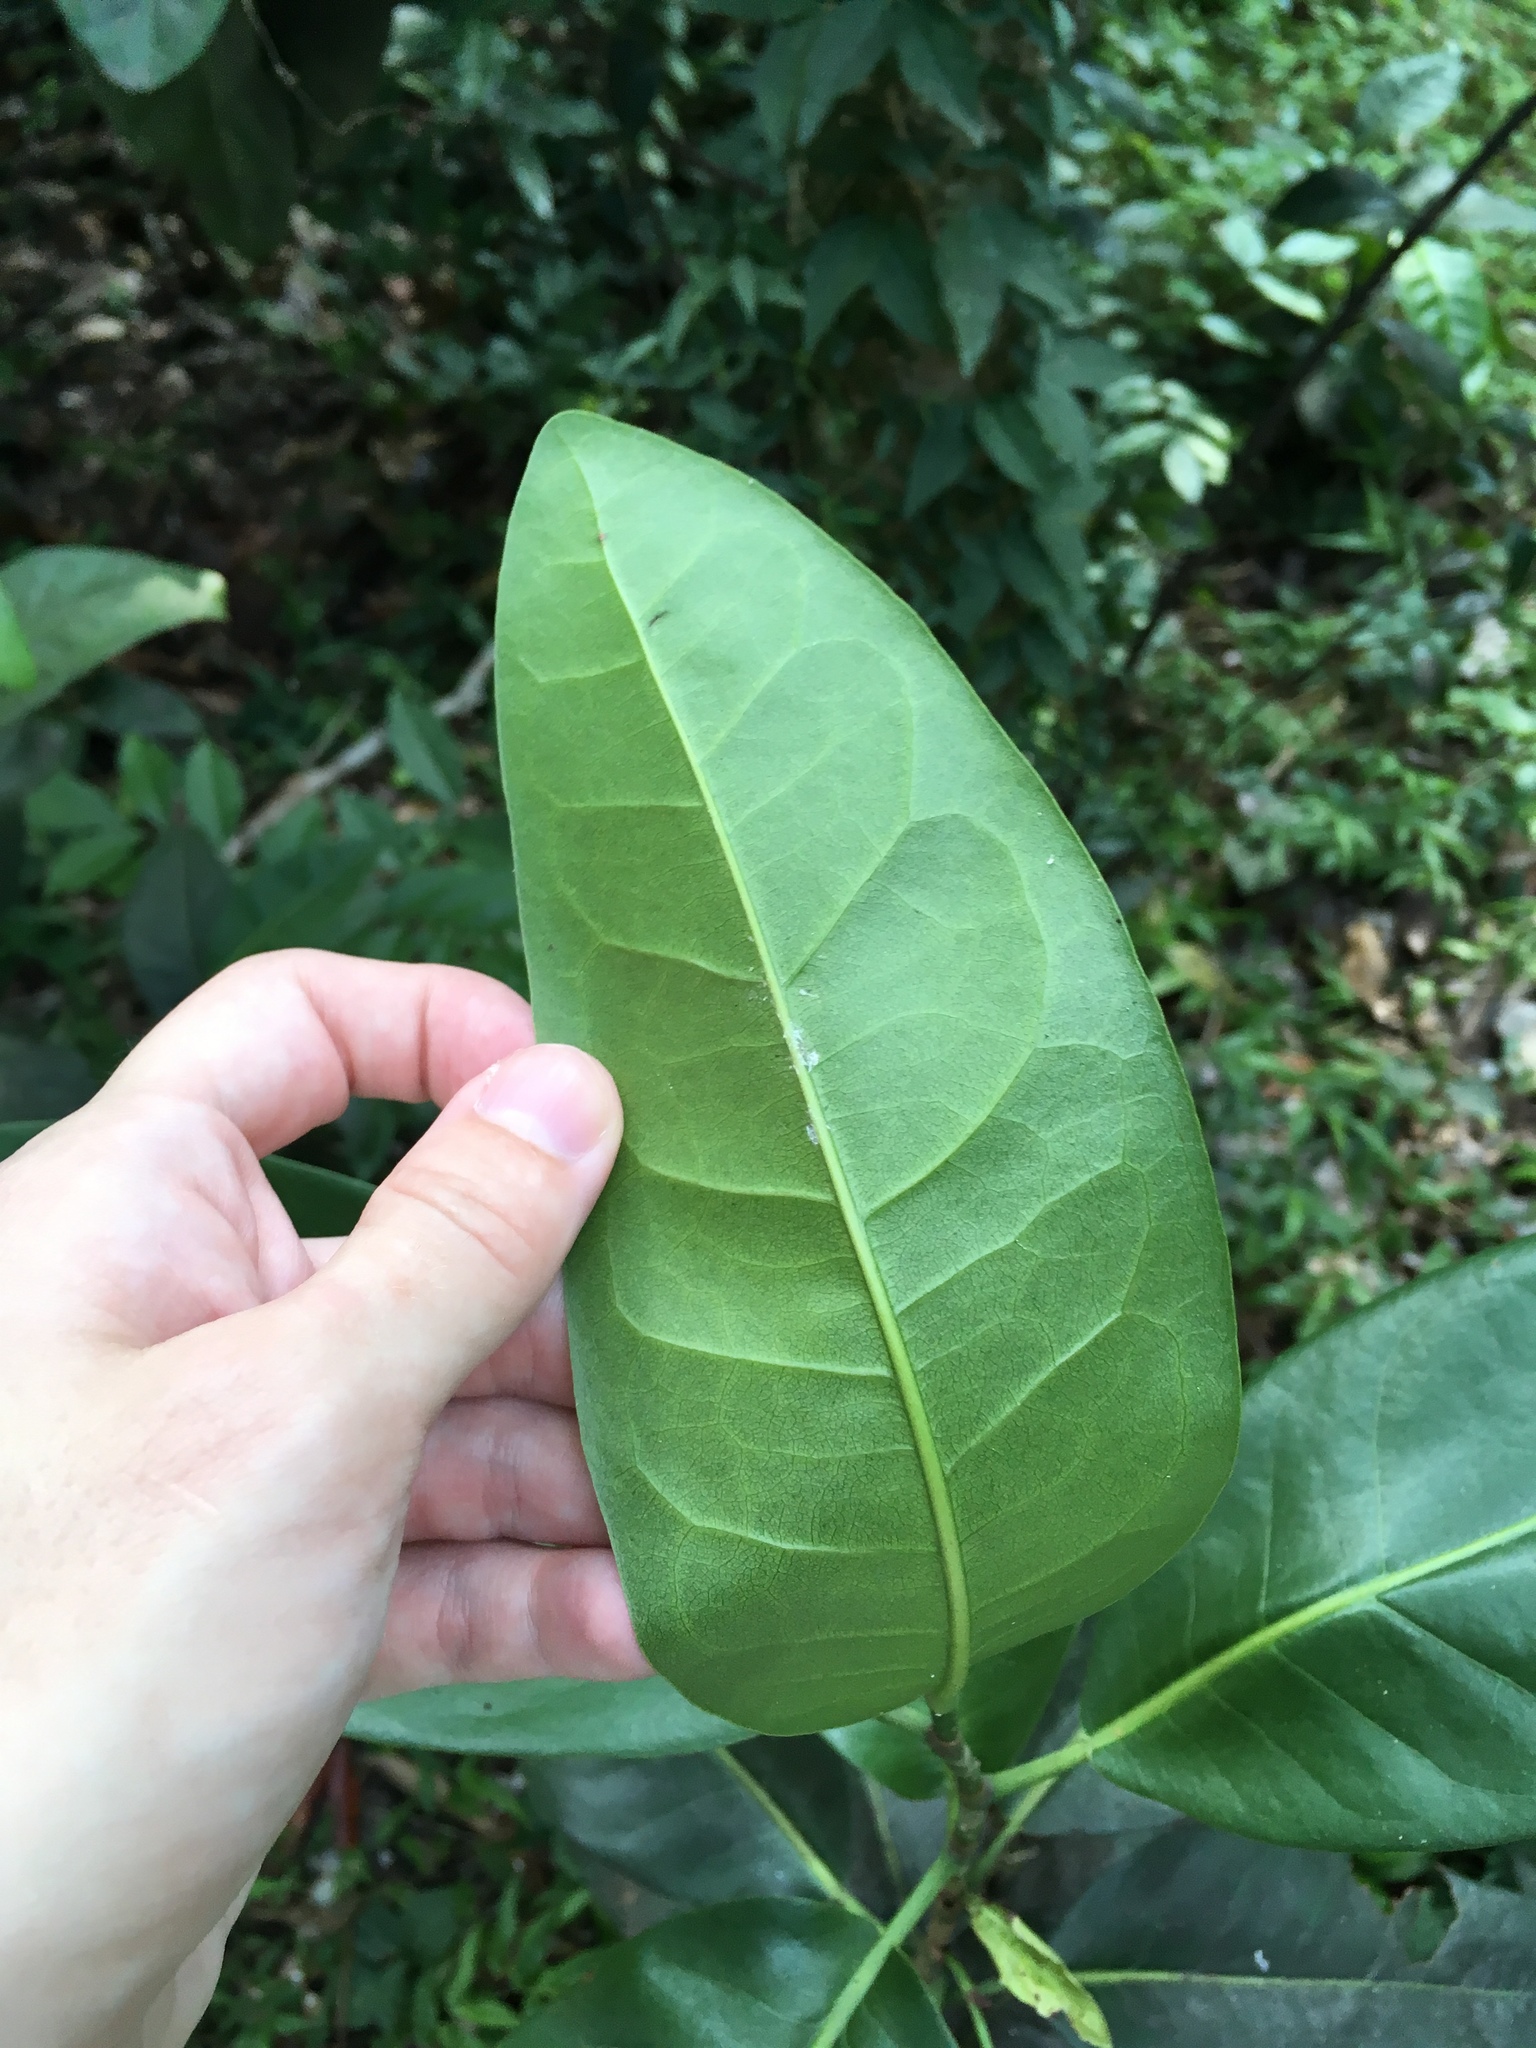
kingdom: Plantae
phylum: Tracheophyta
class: Magnoliopsida
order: Caryophyllales
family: Polygonaceae
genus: Coccoloba
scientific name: Coccoloba diversifolia
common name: Pigeon-plum
